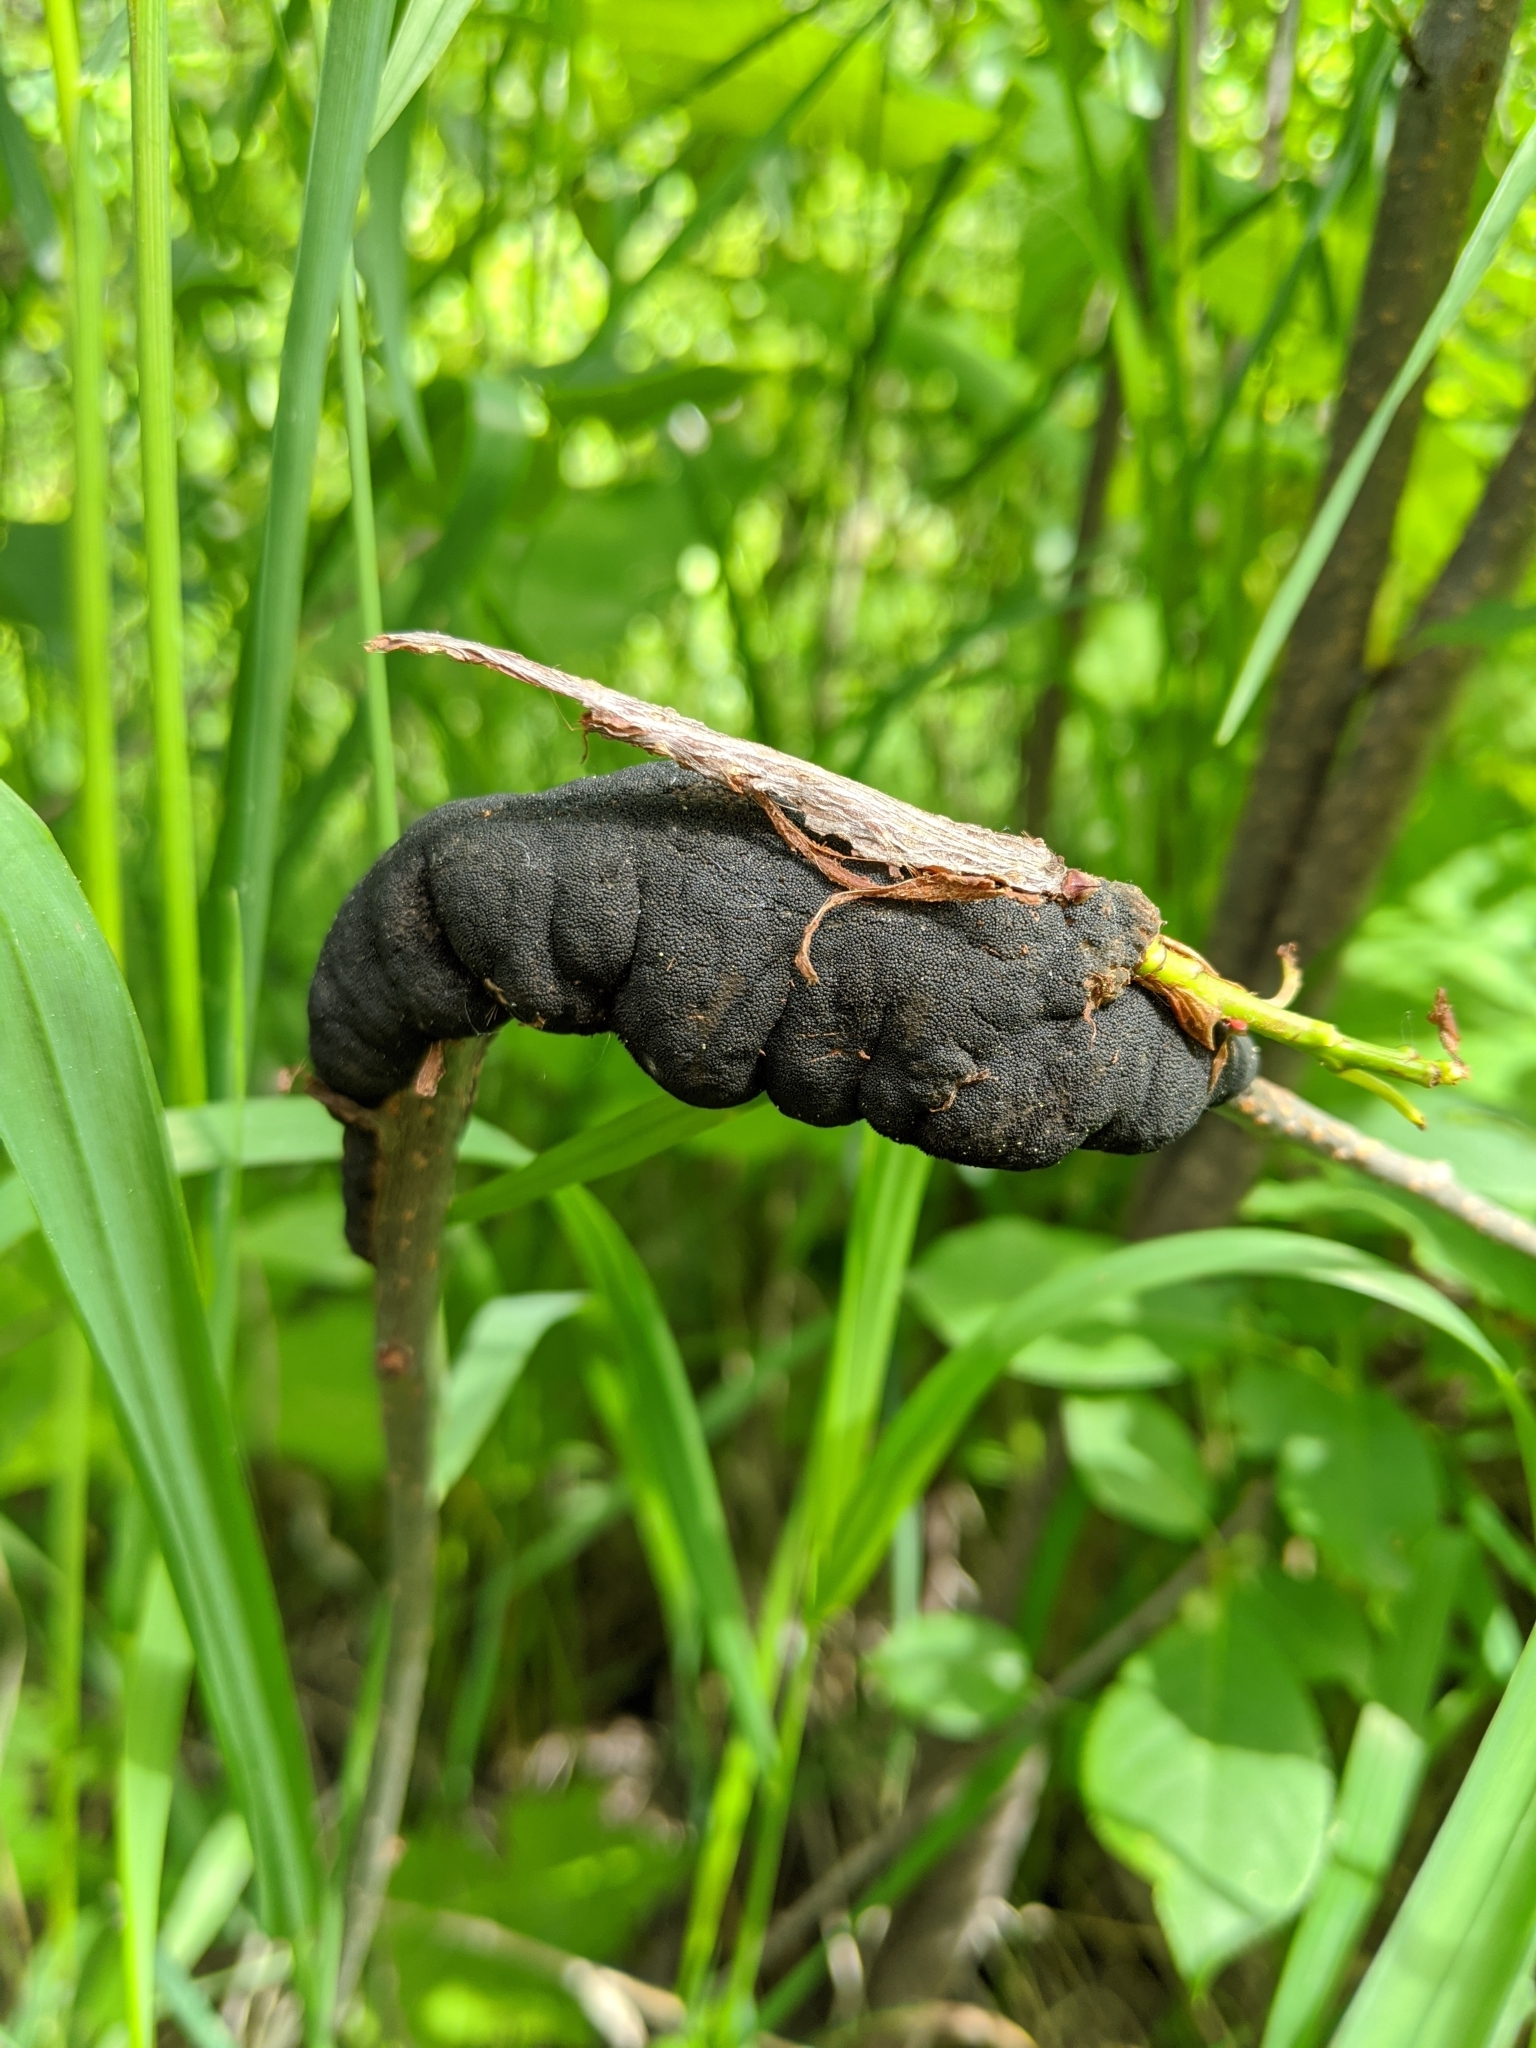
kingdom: Fungi
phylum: Ascomycota
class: Dothideomycetes
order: Venturiales
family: Venturiaceae
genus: Apiosporina
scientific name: Apiosporina morbosa
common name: Black knot
